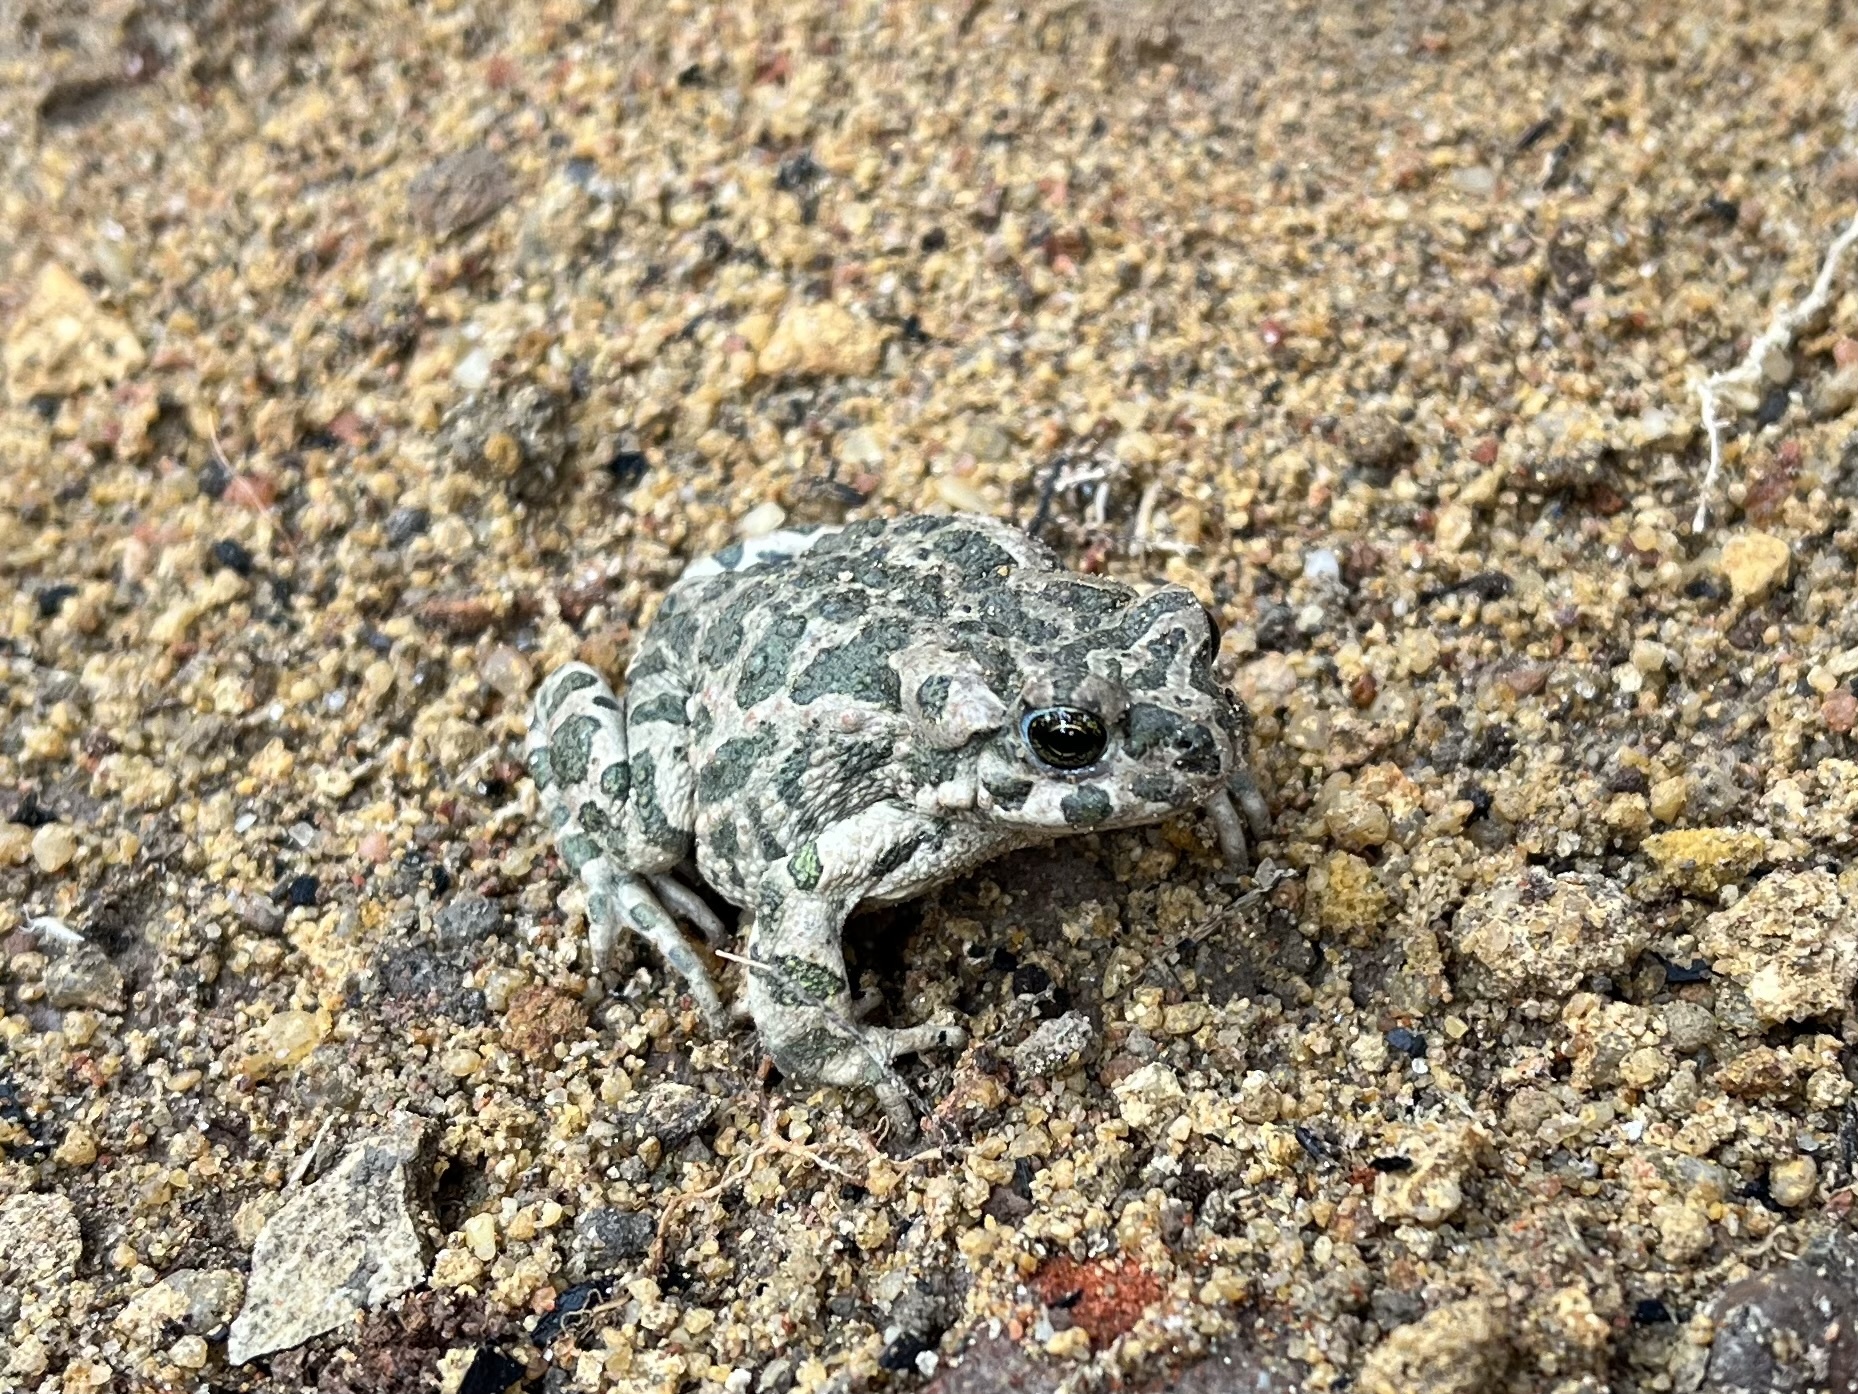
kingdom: Animalia
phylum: Chordata
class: Amphibia
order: Anura
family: Bufonidae
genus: Bufotes
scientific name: Bufotes viridis
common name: European green toad
